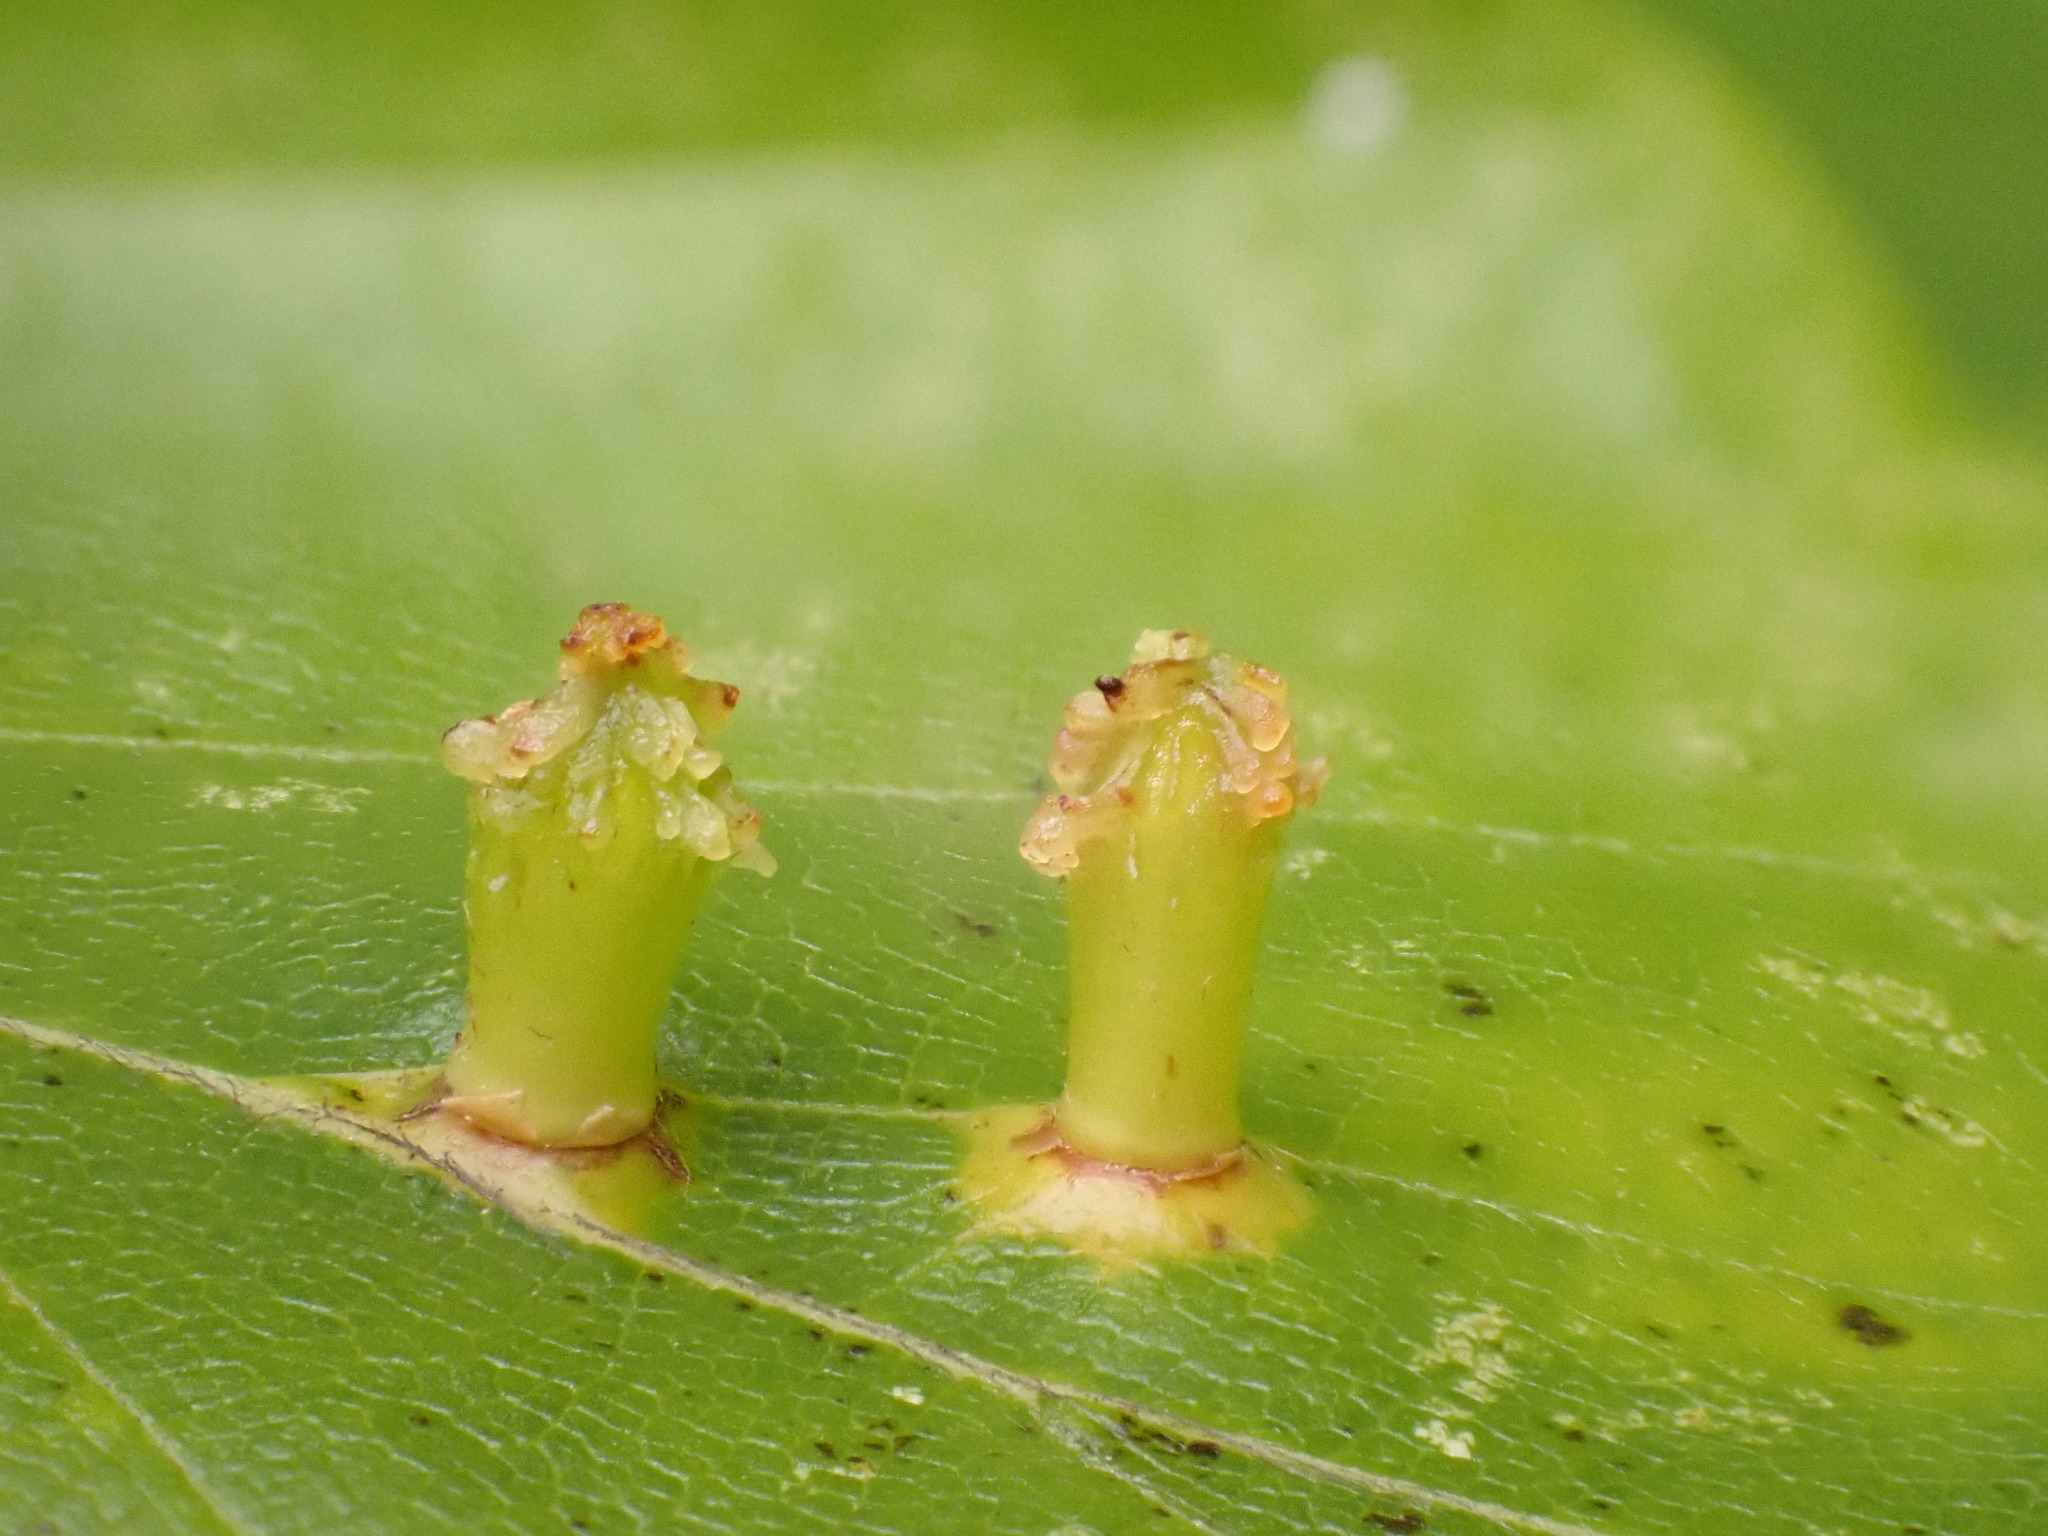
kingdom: Animalia
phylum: Arthropoda
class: Insecta
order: Diptera
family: Cecidomyiidae
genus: Hartigiola
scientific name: Hartigiola annulipes
